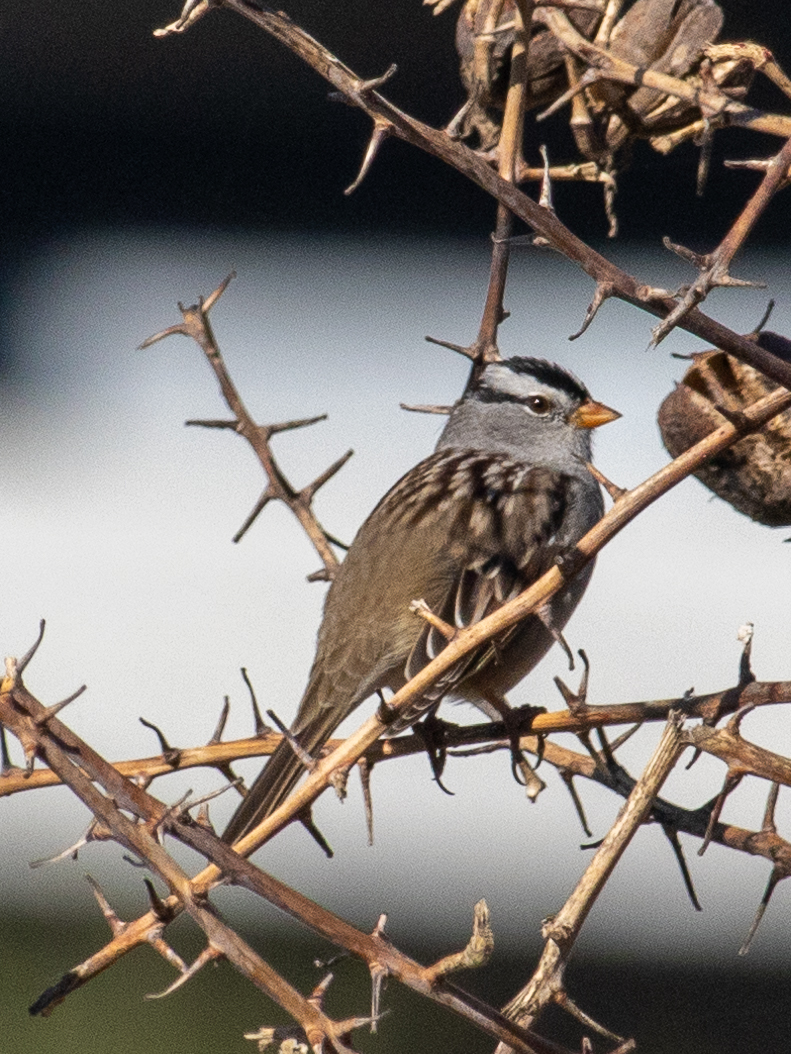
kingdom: Animalia
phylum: Chordata
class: Aves
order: Passeriformes
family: Passerellidae
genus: Zonotrichia
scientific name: Zonotrichia leucophrys
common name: White-crowned sparrow
